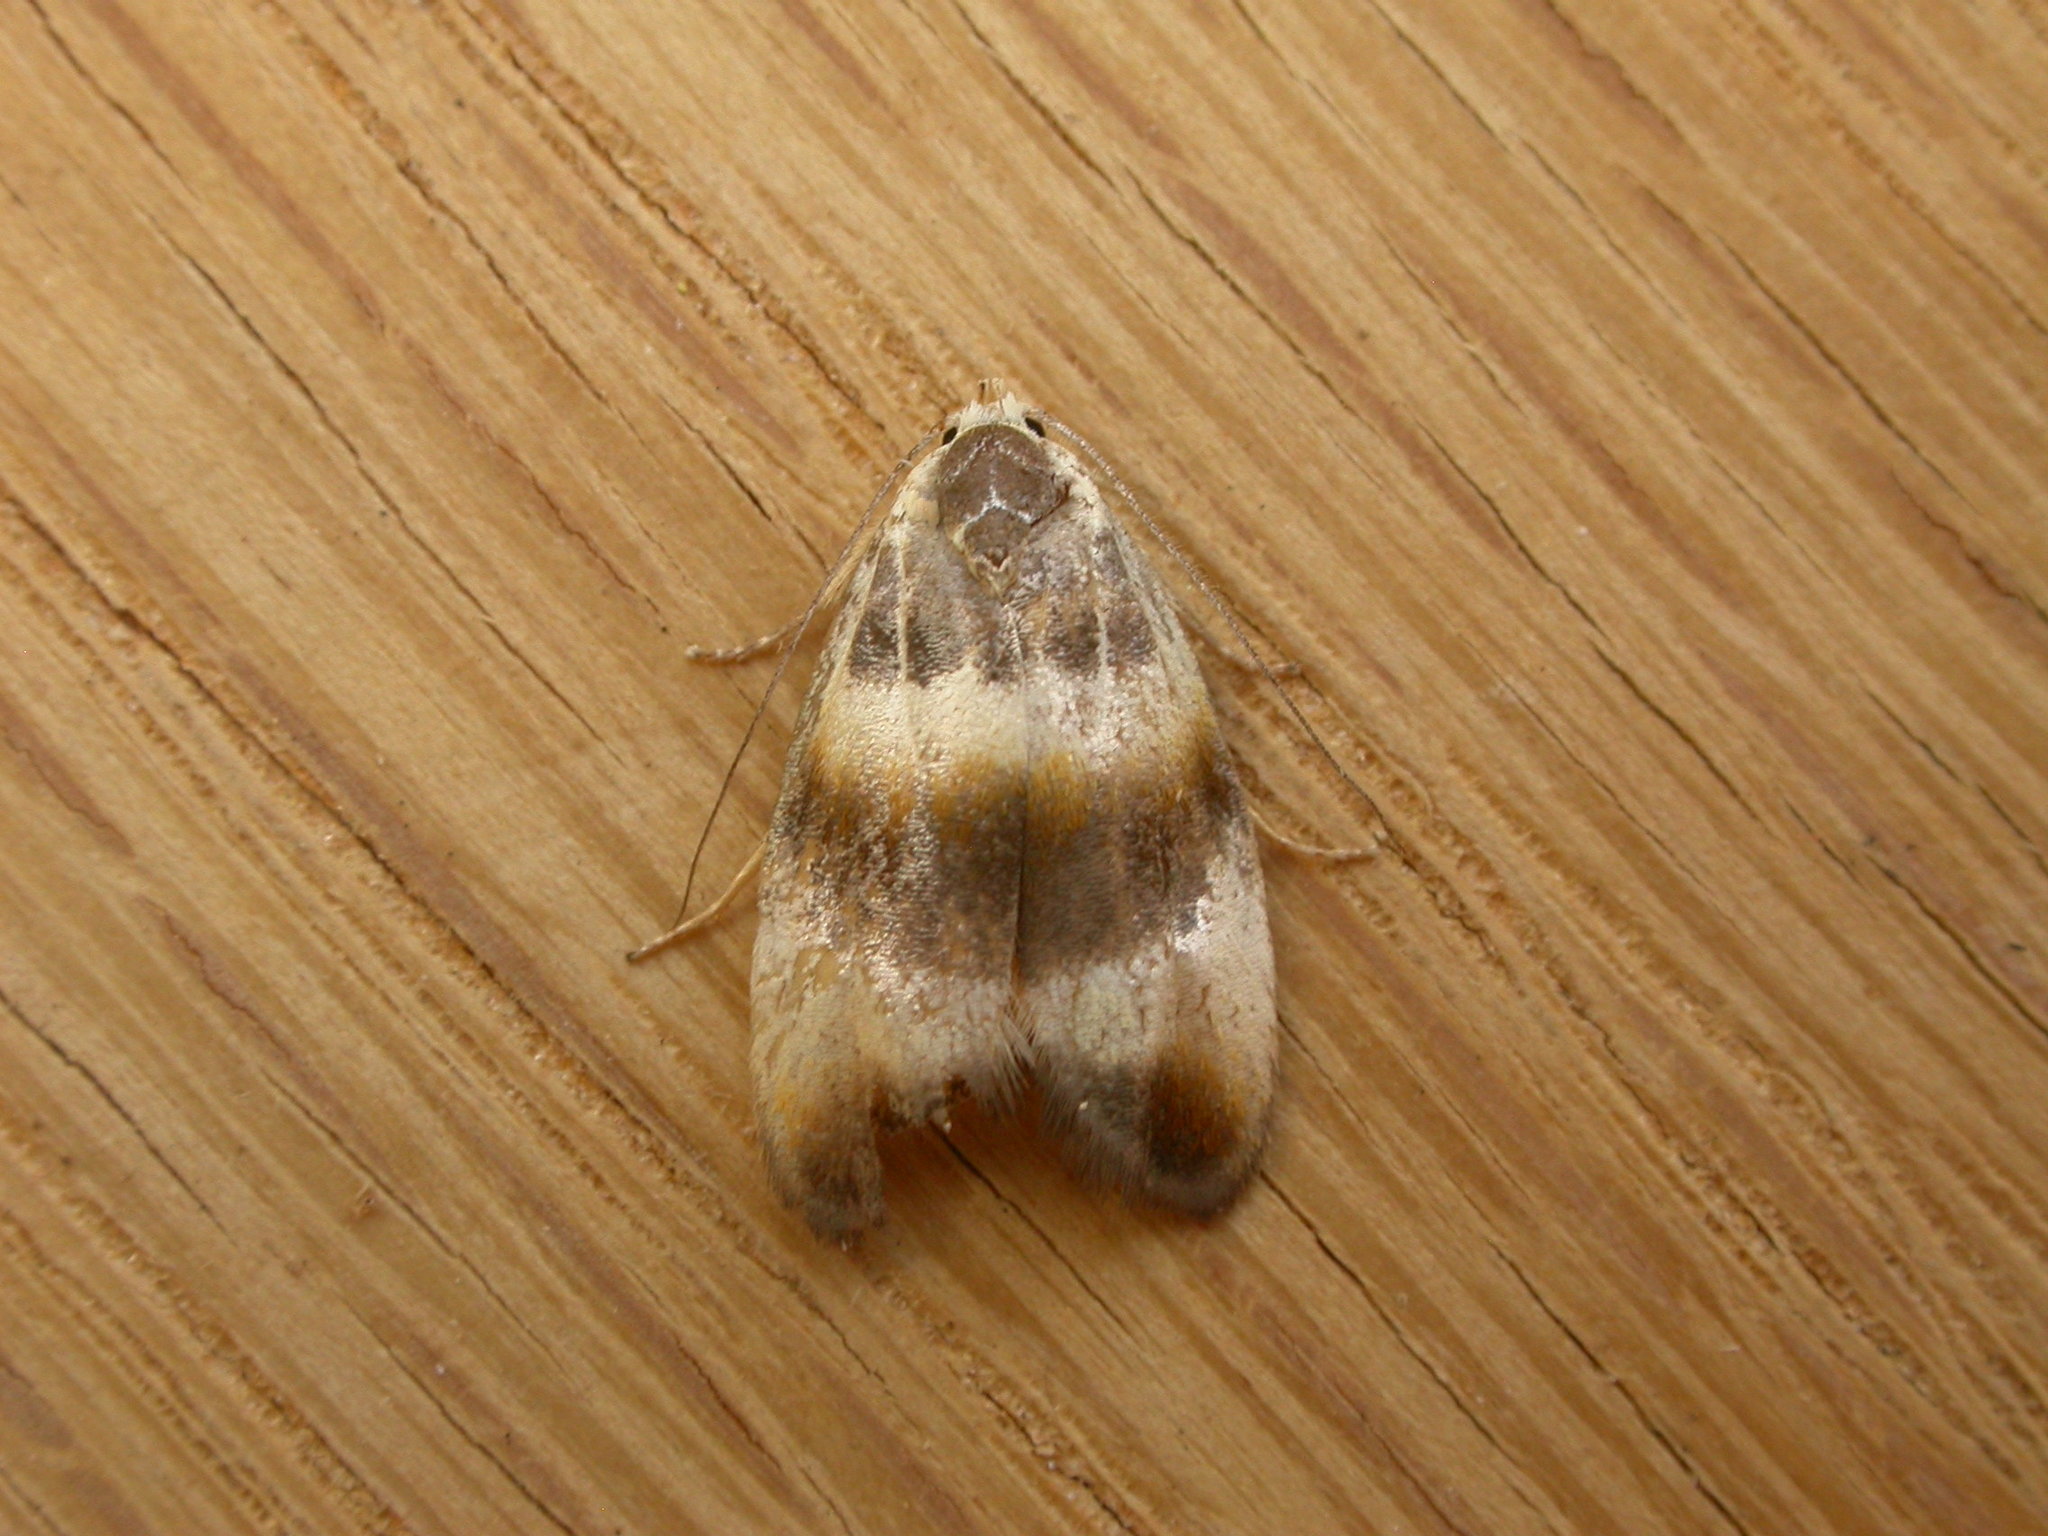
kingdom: Animalia
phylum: Arthropoda
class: Insecta
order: Lepidoptera
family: Oecophoridae
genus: Piloprepes
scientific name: Piloprepes anassa
